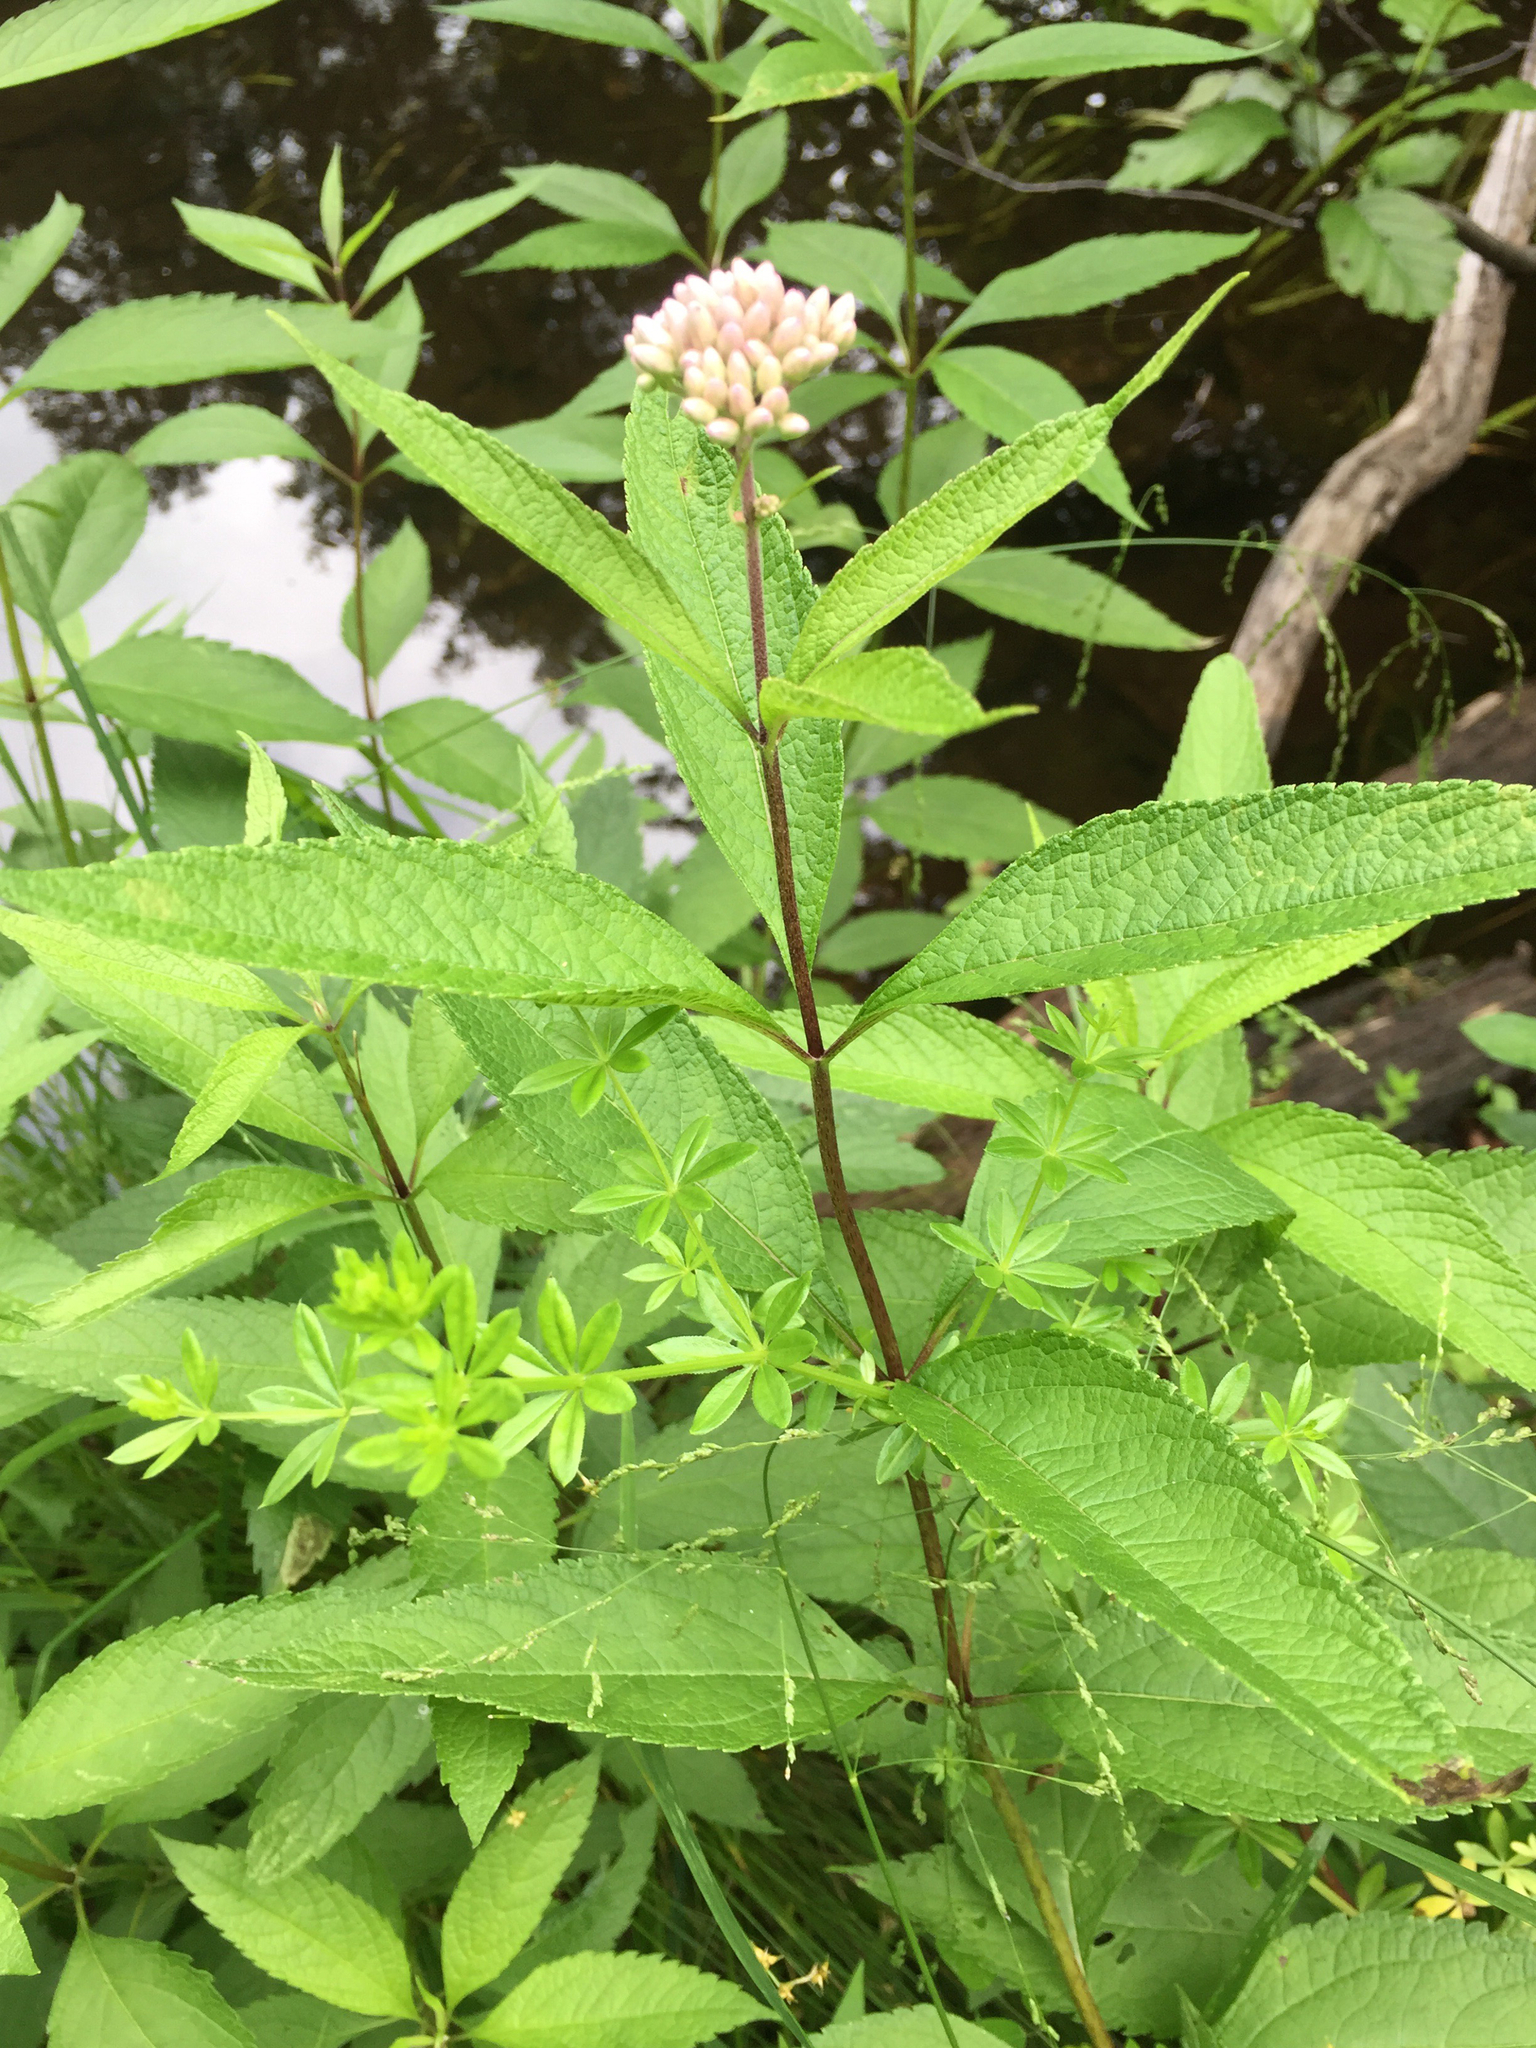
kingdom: Plantae
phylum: Tracheophyta
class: Magnoliopsida
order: Gentianales
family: Apocynaceae
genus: Asclepias
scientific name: Asclepias incarnata
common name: Swamp milkweed
